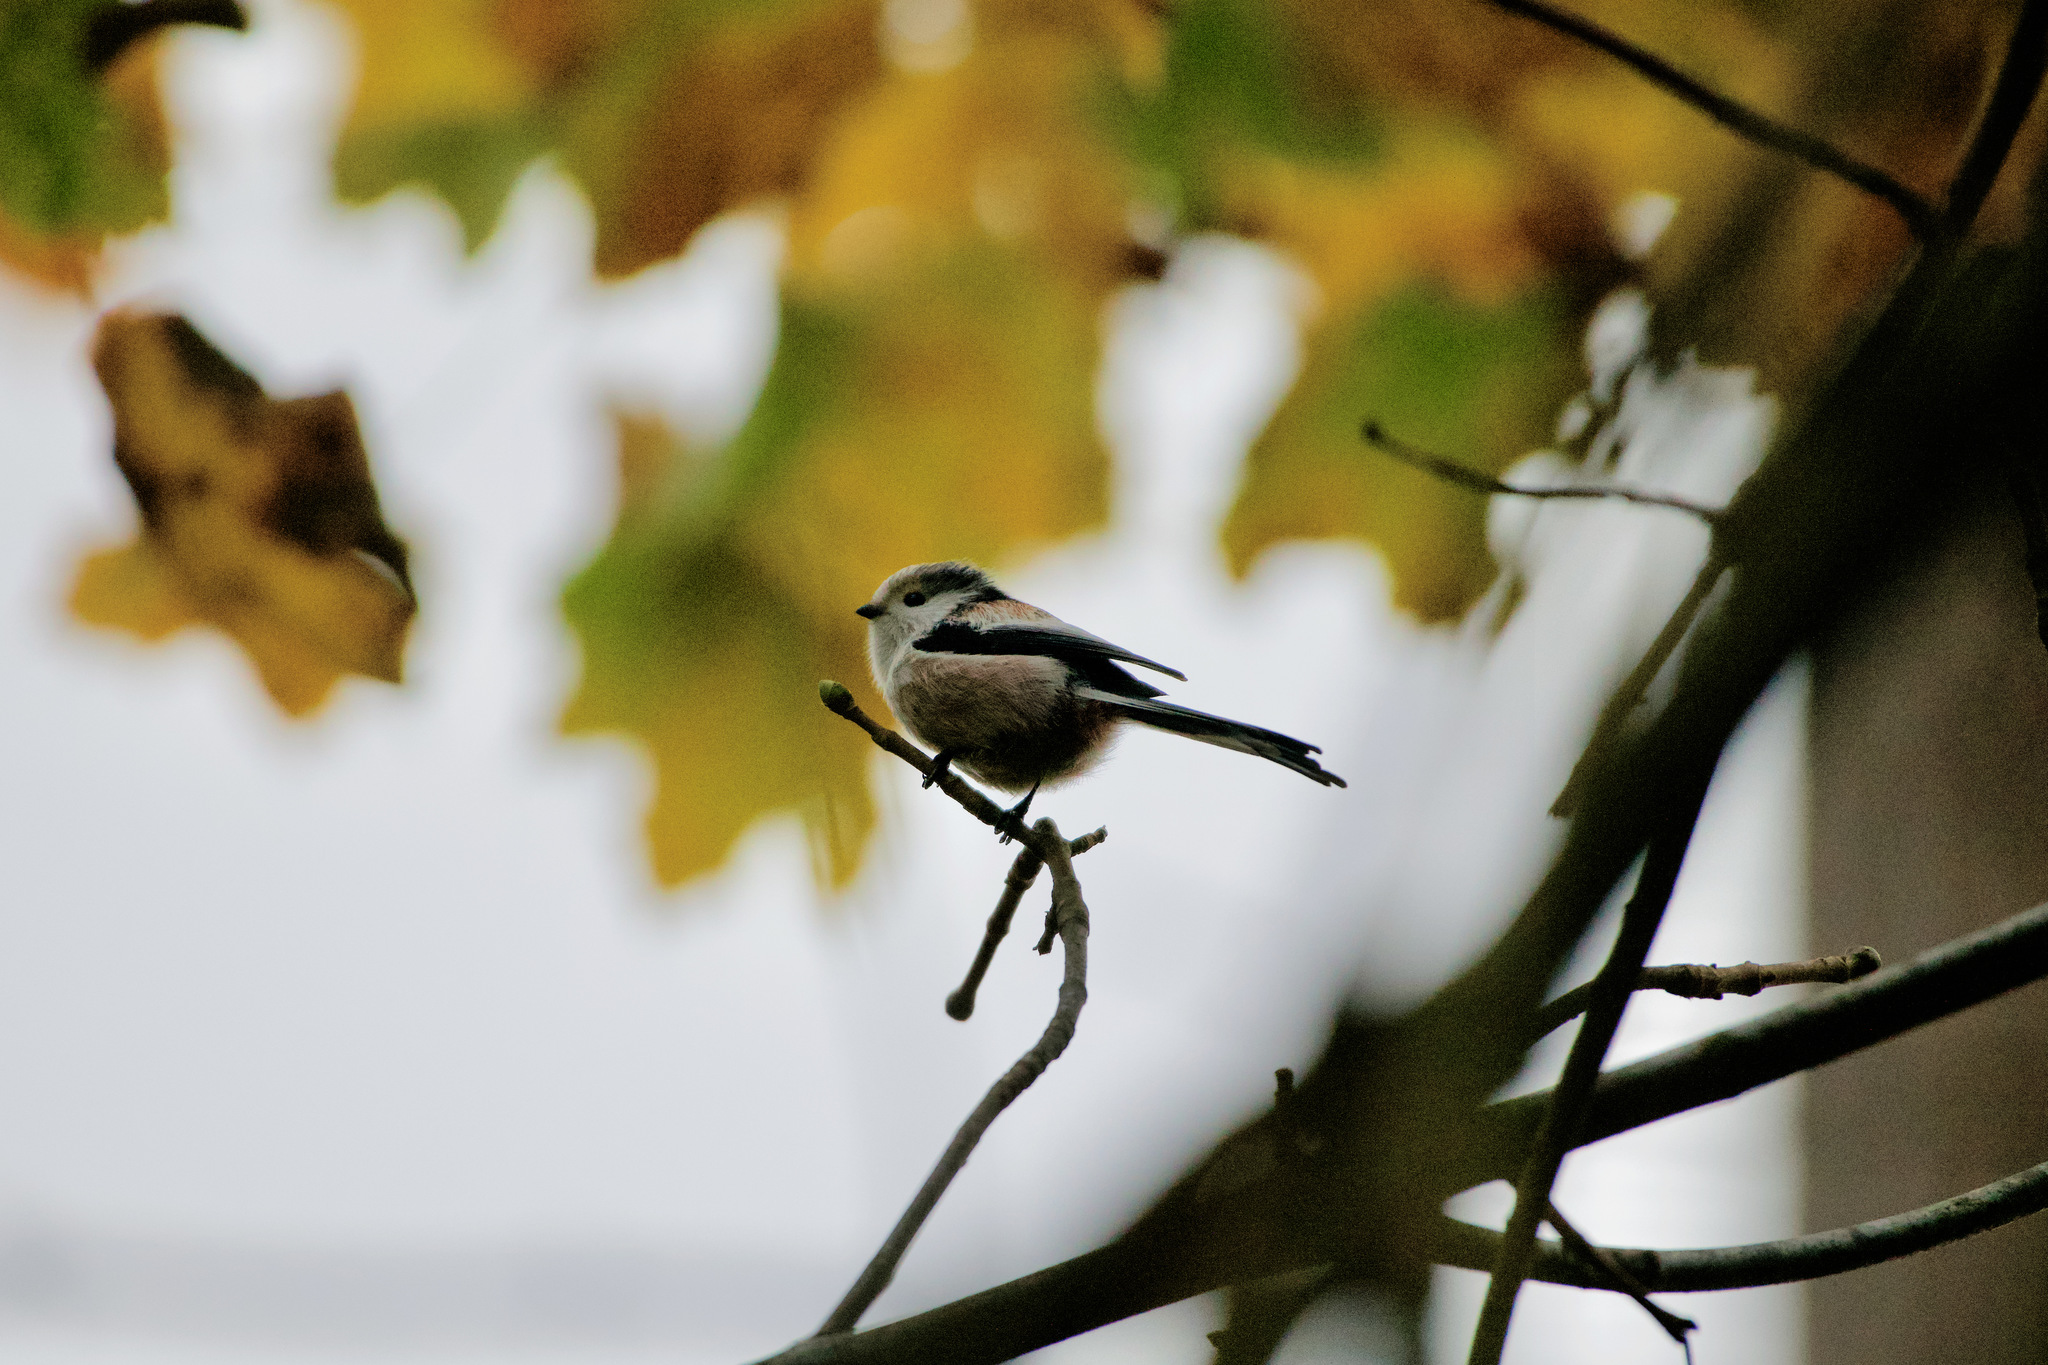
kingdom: Animalia
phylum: Chordata
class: Aves
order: Passeriformes
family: Aegithalidae
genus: Aegithalos
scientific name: Aegithalos caudatus
